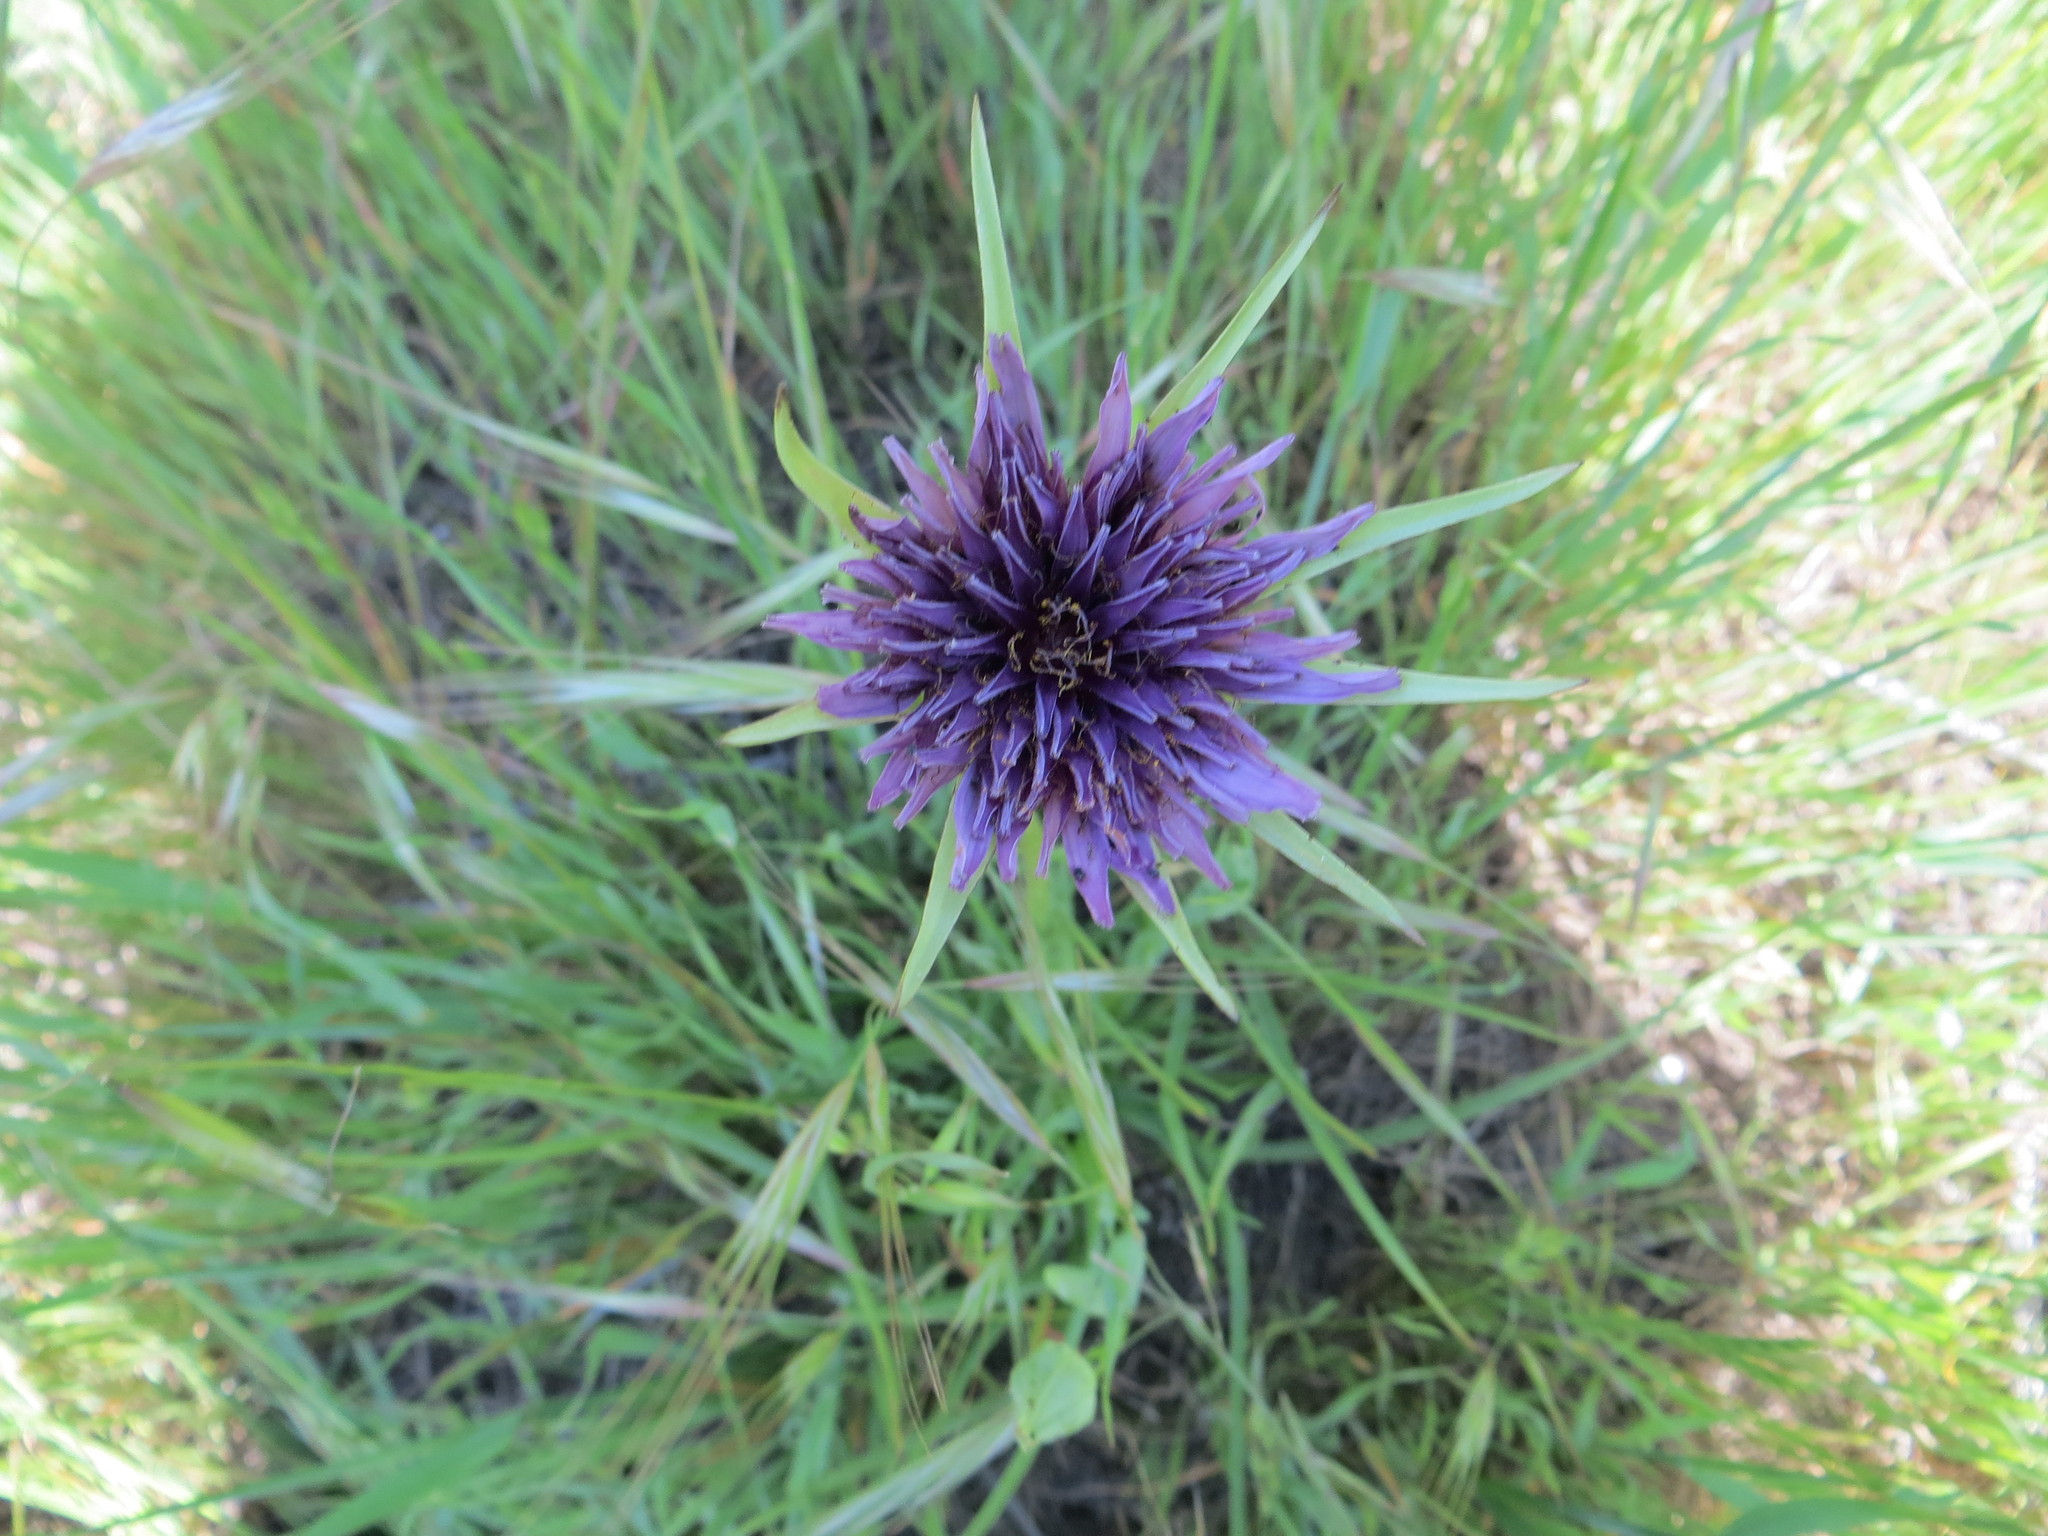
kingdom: Plantae
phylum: Tracheophyta
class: Magnoliopsida
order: Asterales
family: Asteraceae
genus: Tragopogon
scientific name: Tragopogon porrifolius
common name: Salsify
